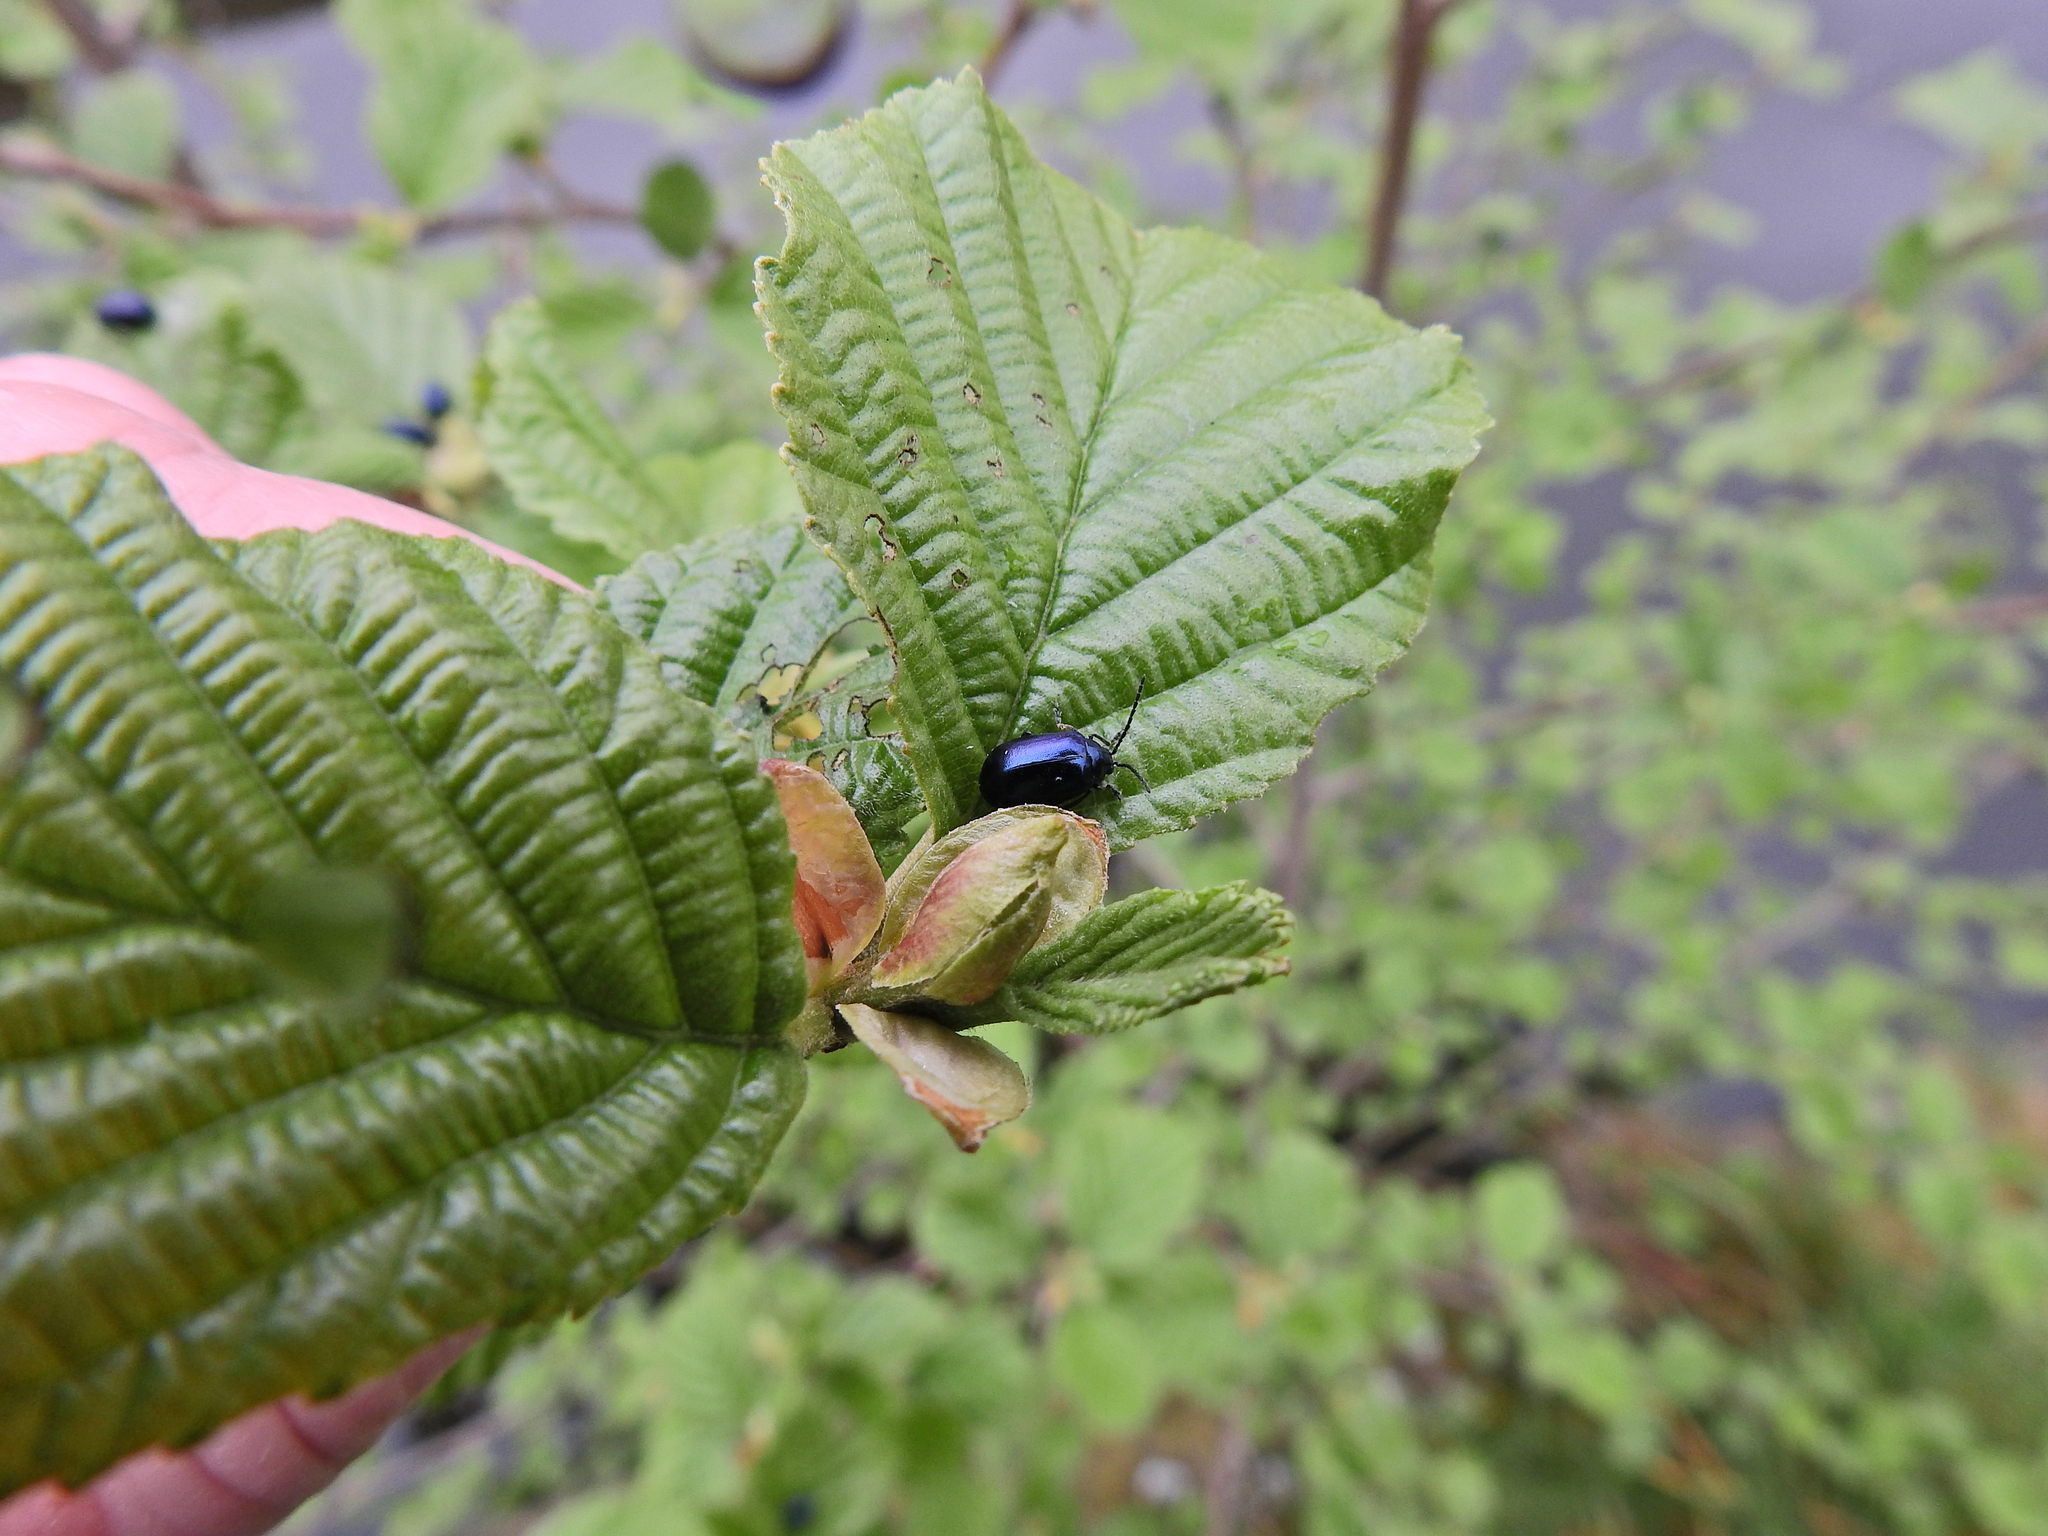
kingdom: Animalia
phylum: Arthropoda
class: Insecta
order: Coleoptera
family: Chrysomelidae
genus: Agelastica
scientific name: Agelastica alni
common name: Alder leaf beetle
